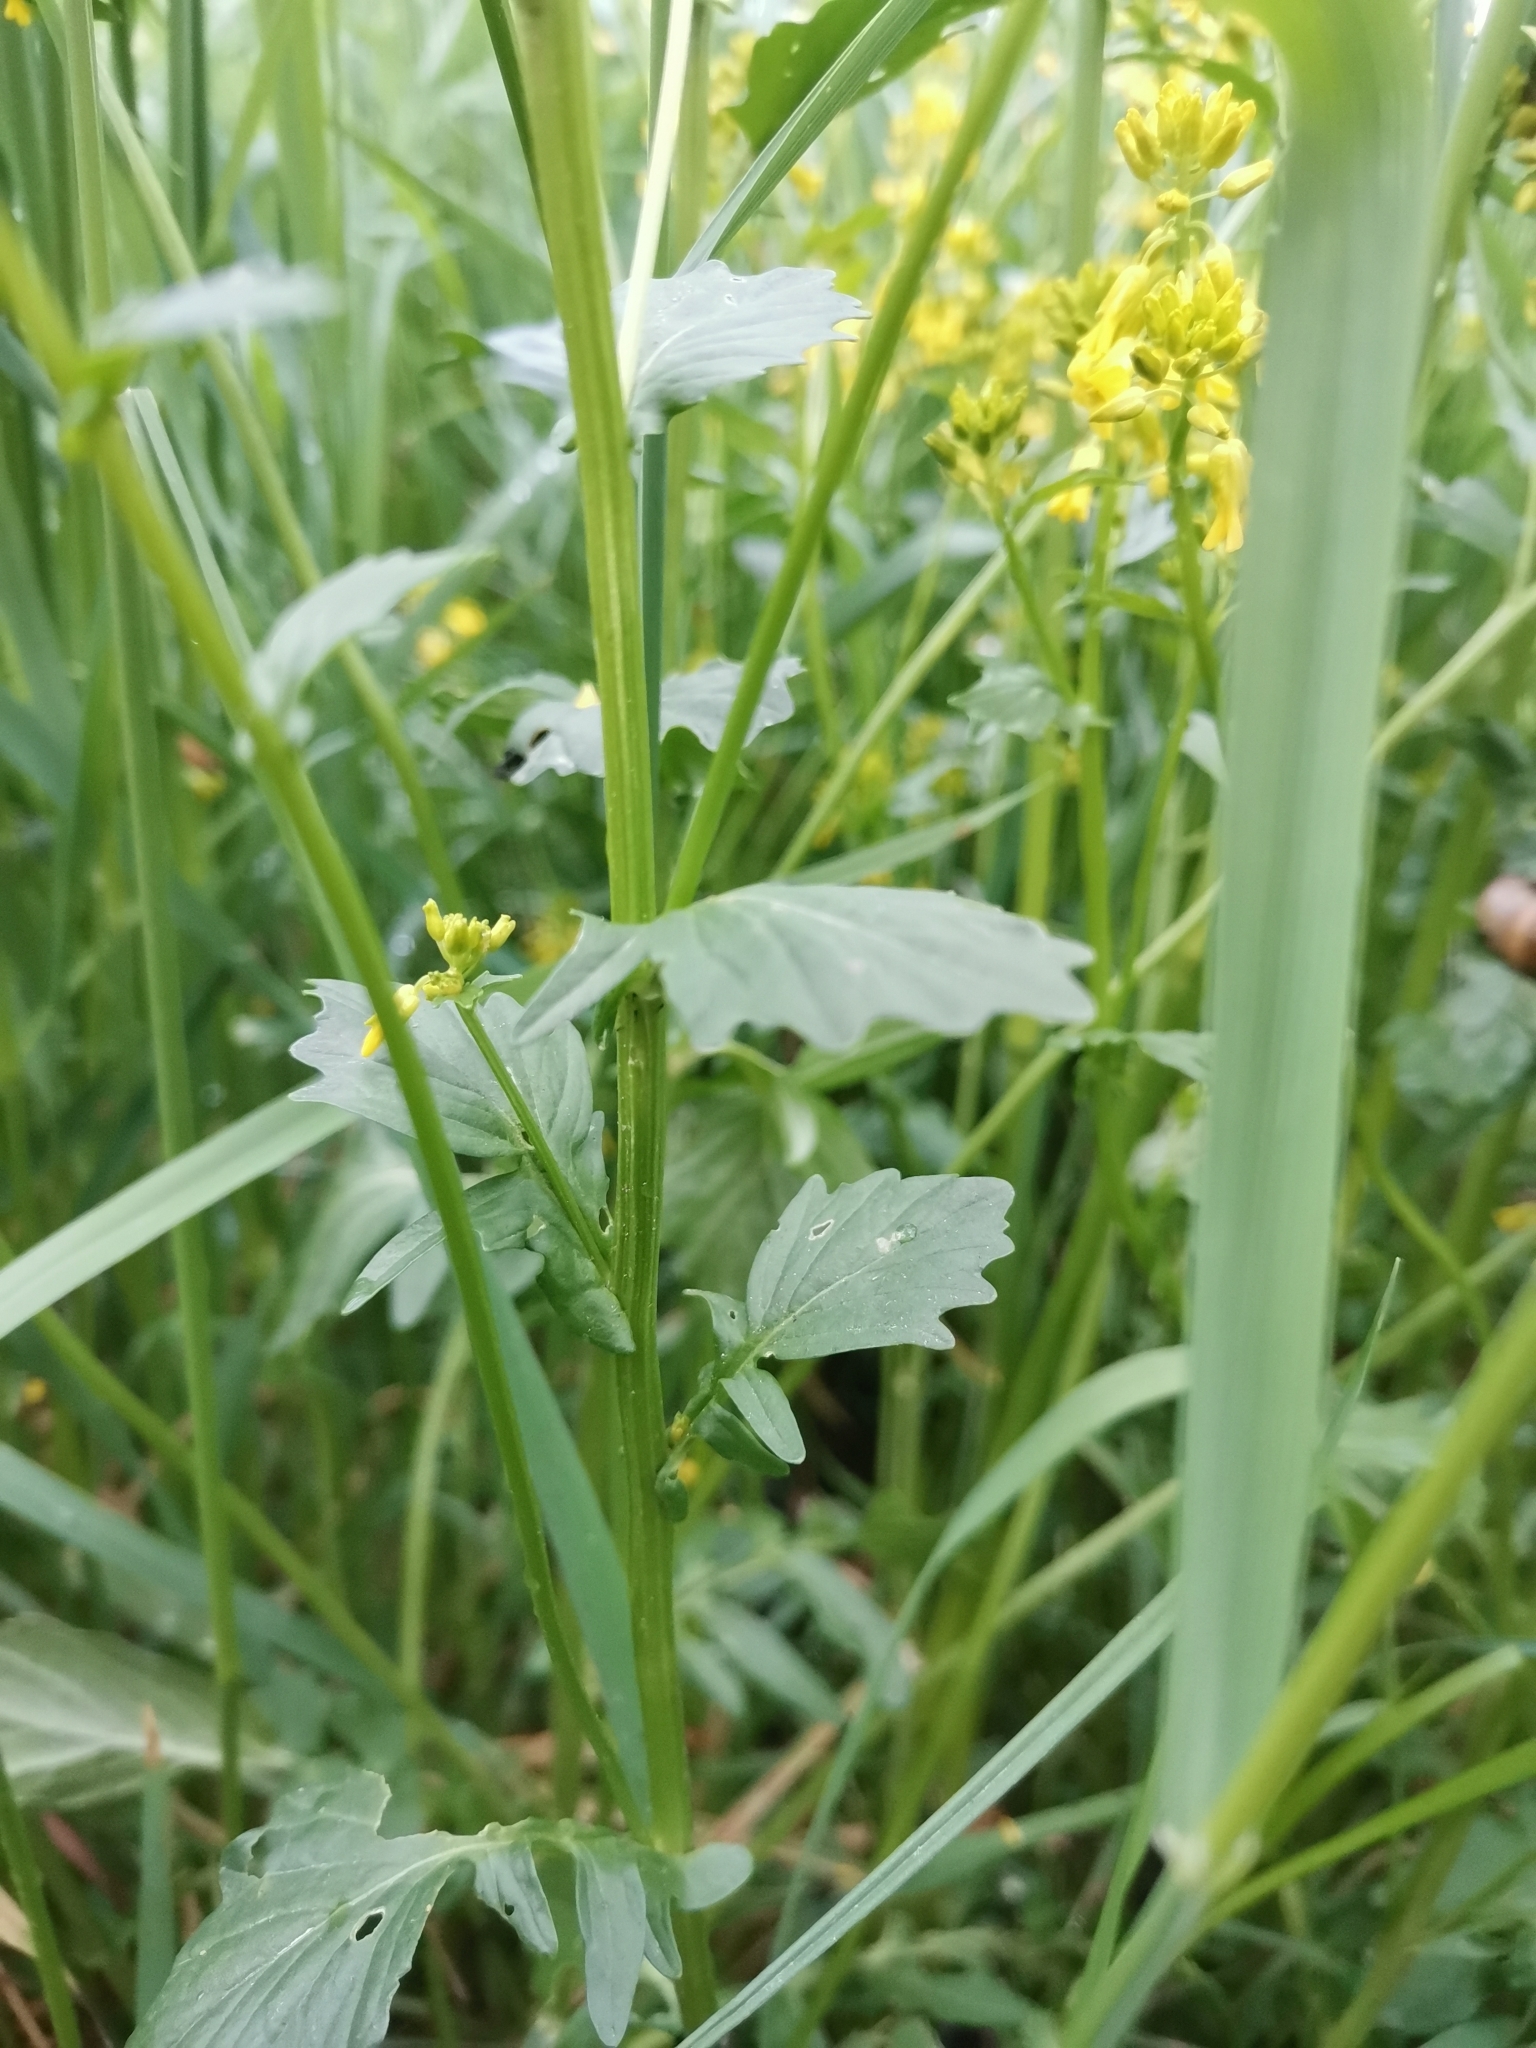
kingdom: Plantae
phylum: Tracheophyta
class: Magnoliopsida
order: Brassicales
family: Brassicaceae
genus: Barbarea
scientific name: Barbarea vulgaris
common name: Cressy-greens
